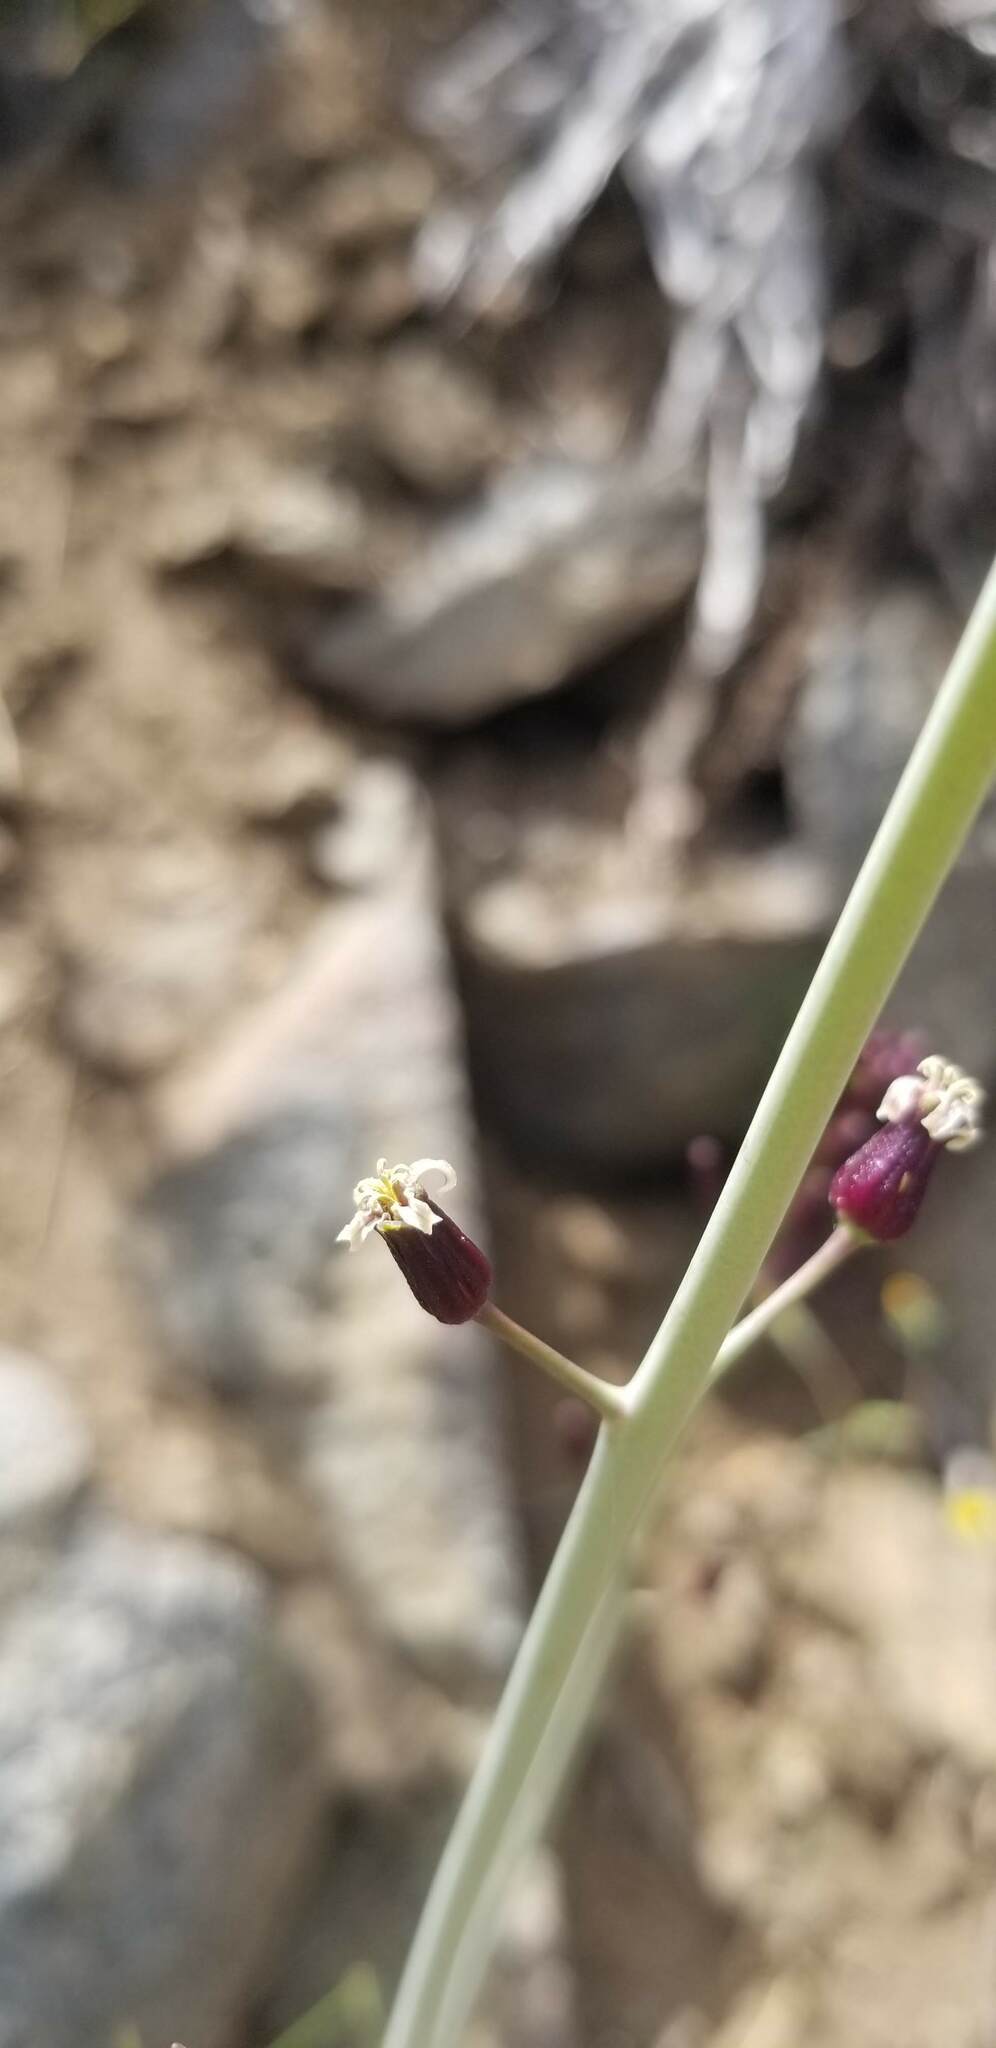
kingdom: Plantae
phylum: Tracheophyta
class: Magnoliopsida
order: Brassicales
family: Brassicaceae
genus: Streptanthus
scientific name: Streptanthus pilosus
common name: Chocolate drops
